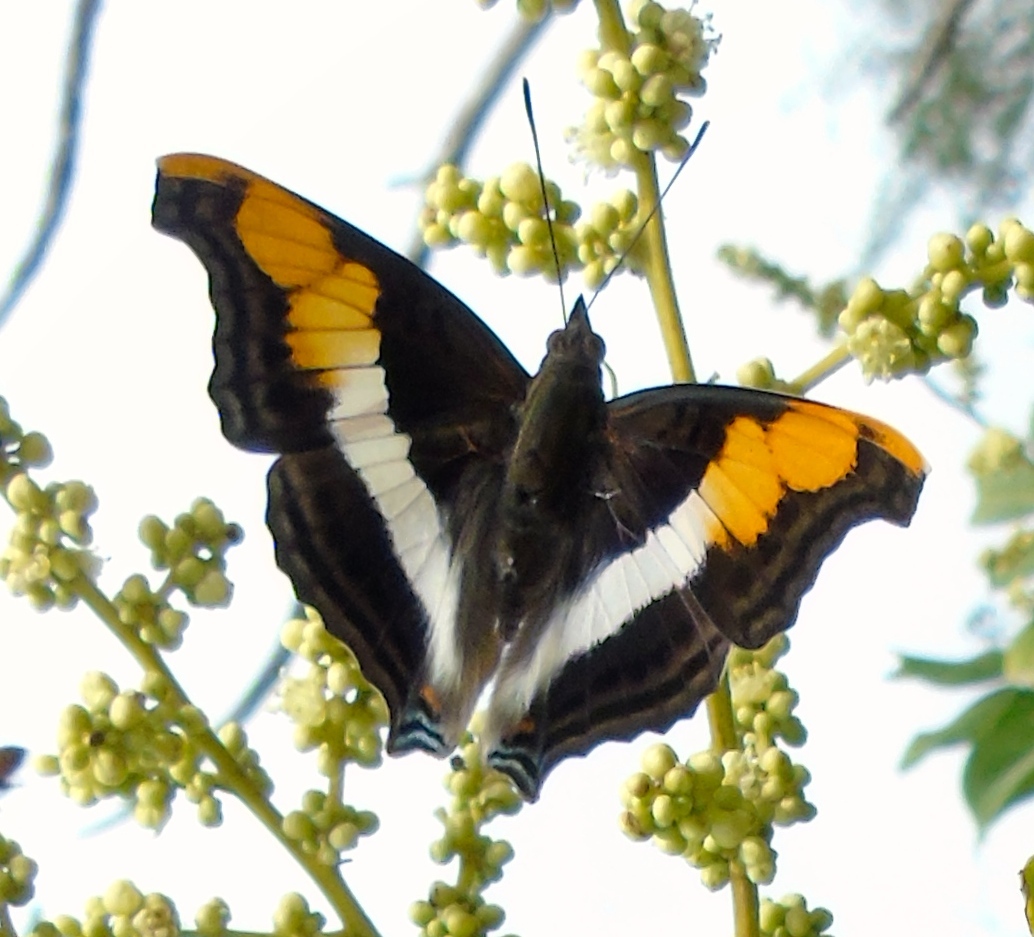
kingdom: Animalia
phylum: Arthropoda
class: Insecta
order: Lepidoptera
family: Nymphalidae
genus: Doxocopa
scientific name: Doxocopa laure
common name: Silver emperor
